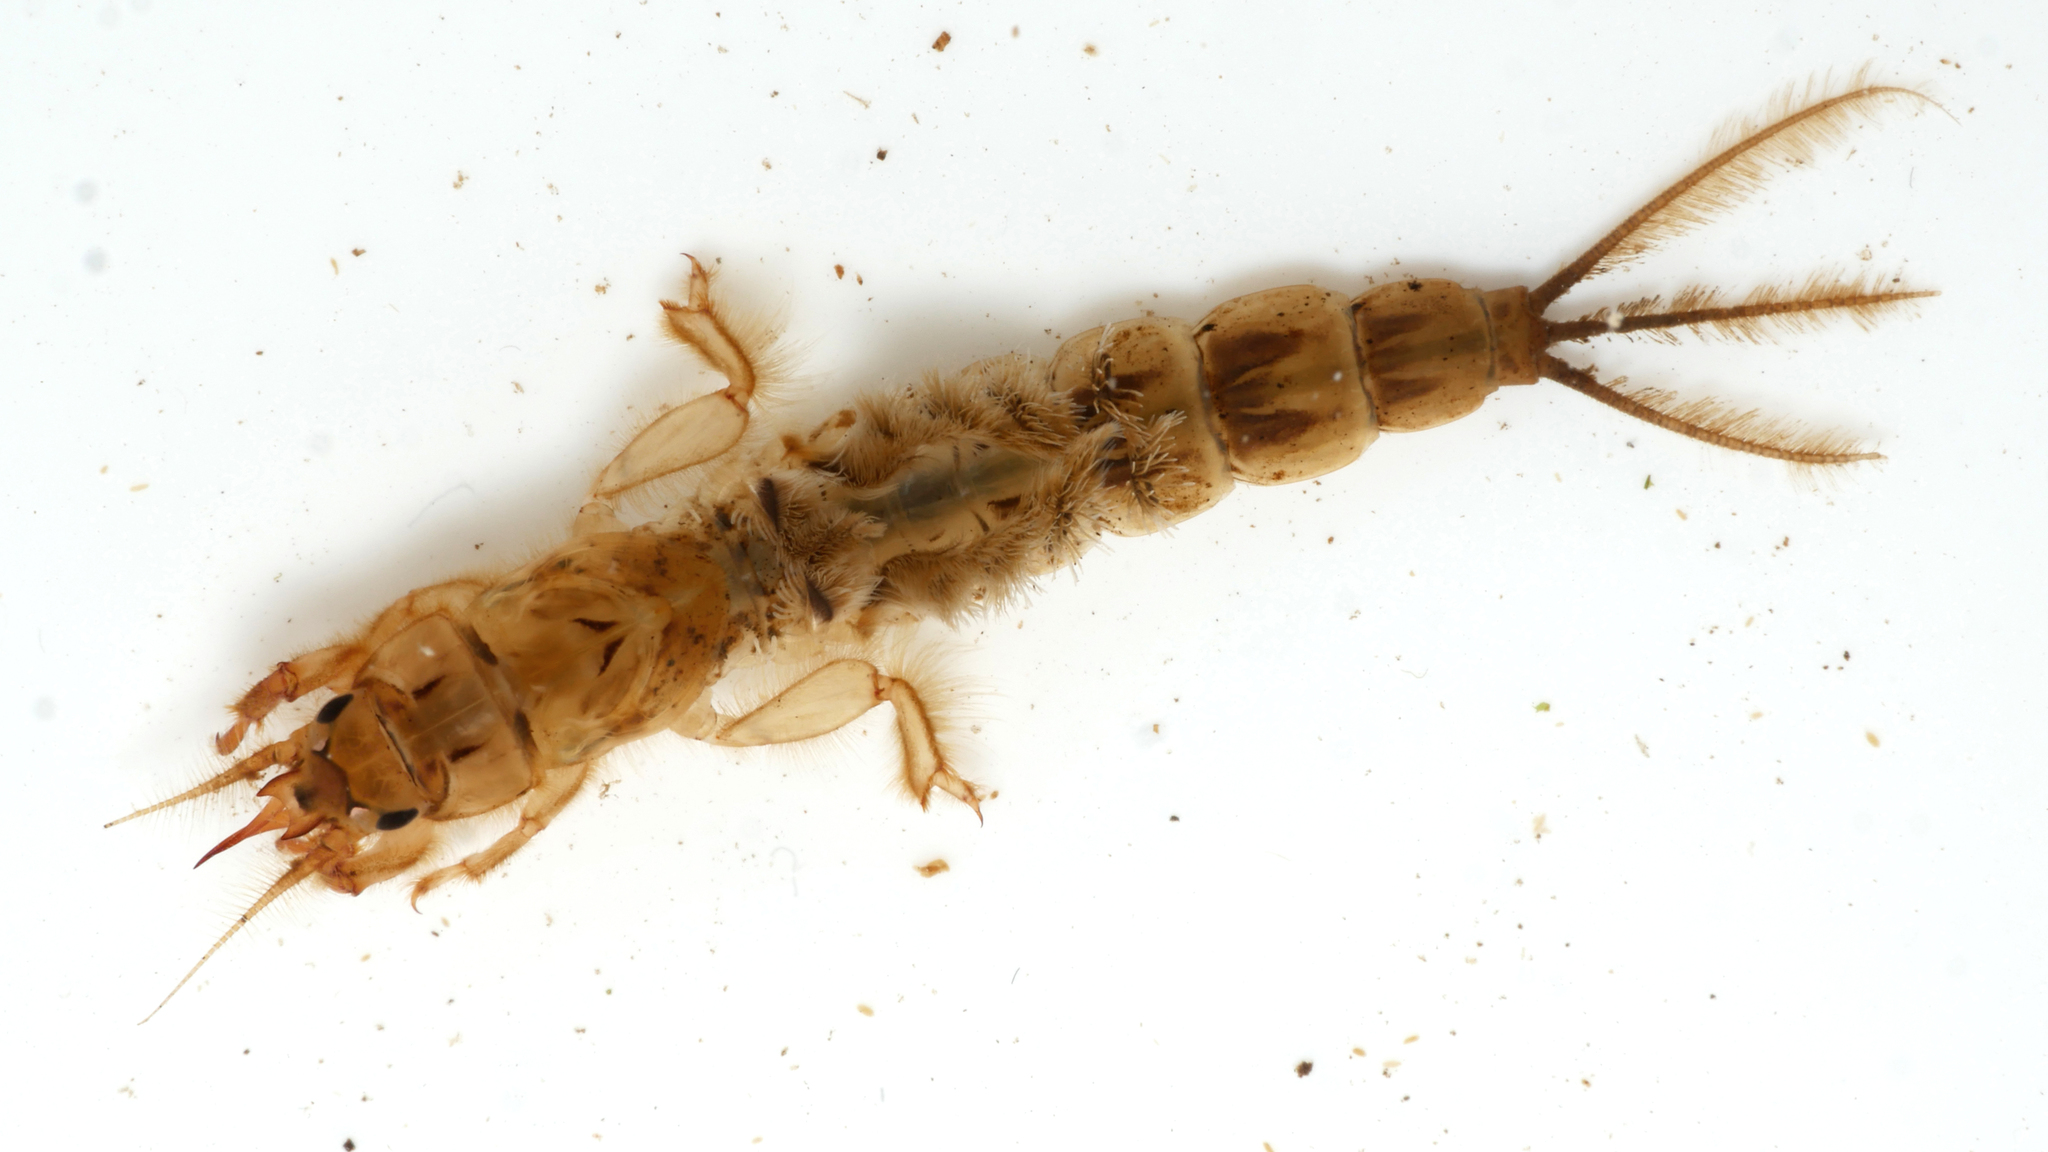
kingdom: Animalia
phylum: Arthropoda
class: Insecta
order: Ephemeroptera
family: Ephemeridae
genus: Ephemera
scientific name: Ephemera danica
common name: Green dun
